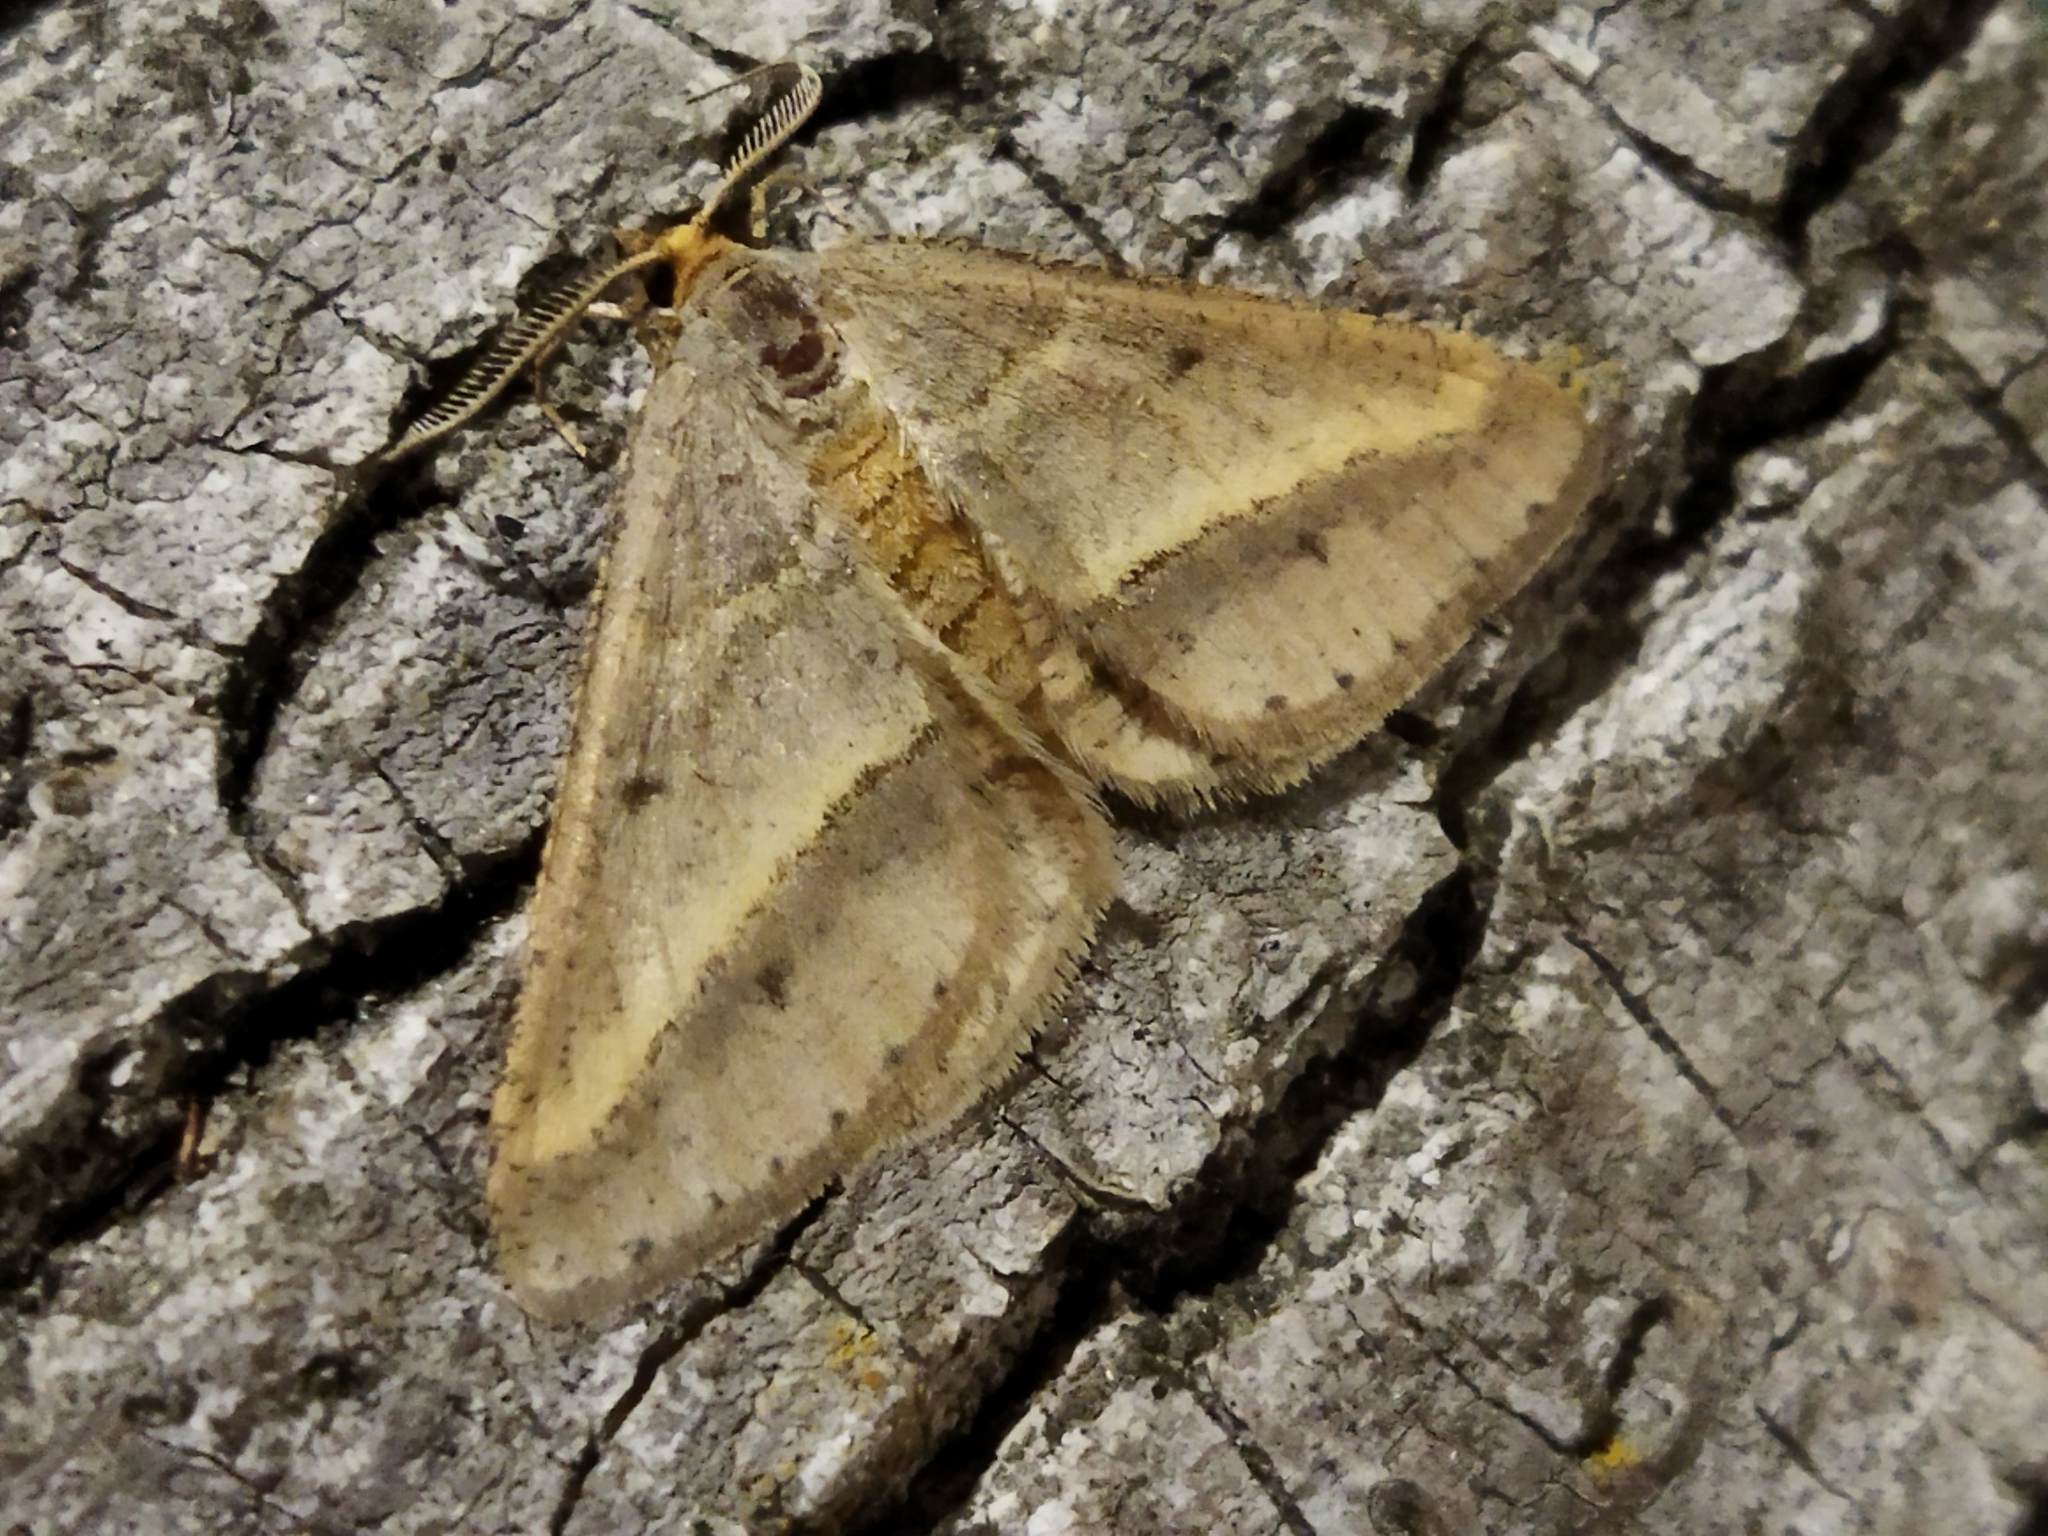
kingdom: Animalia
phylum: Arthropoda
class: Insecta
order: Lepidoptera
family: Geometridae
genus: Tephrina
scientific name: Tephrina arenacearia
